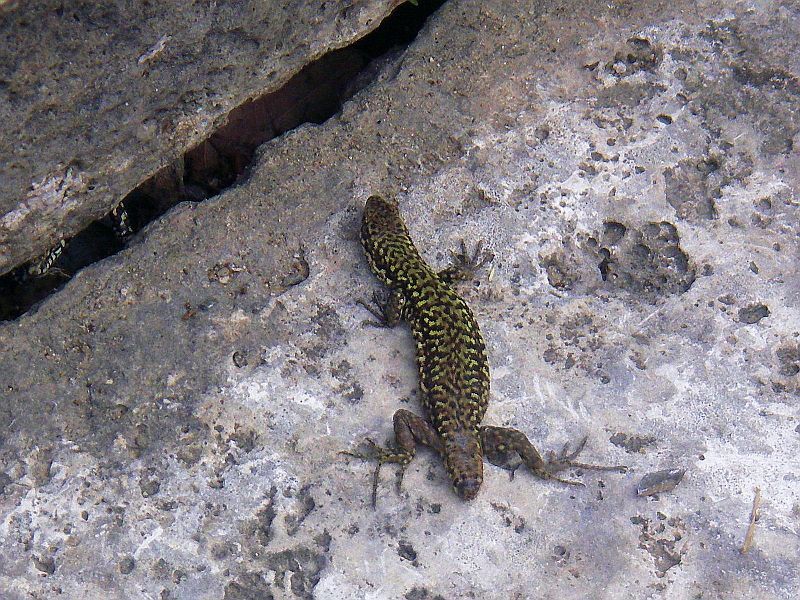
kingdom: Animalia
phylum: Chordata
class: Squamata
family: Lacertidae
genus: Podarcis
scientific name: Podarcis muralis
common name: Common wall lizard
